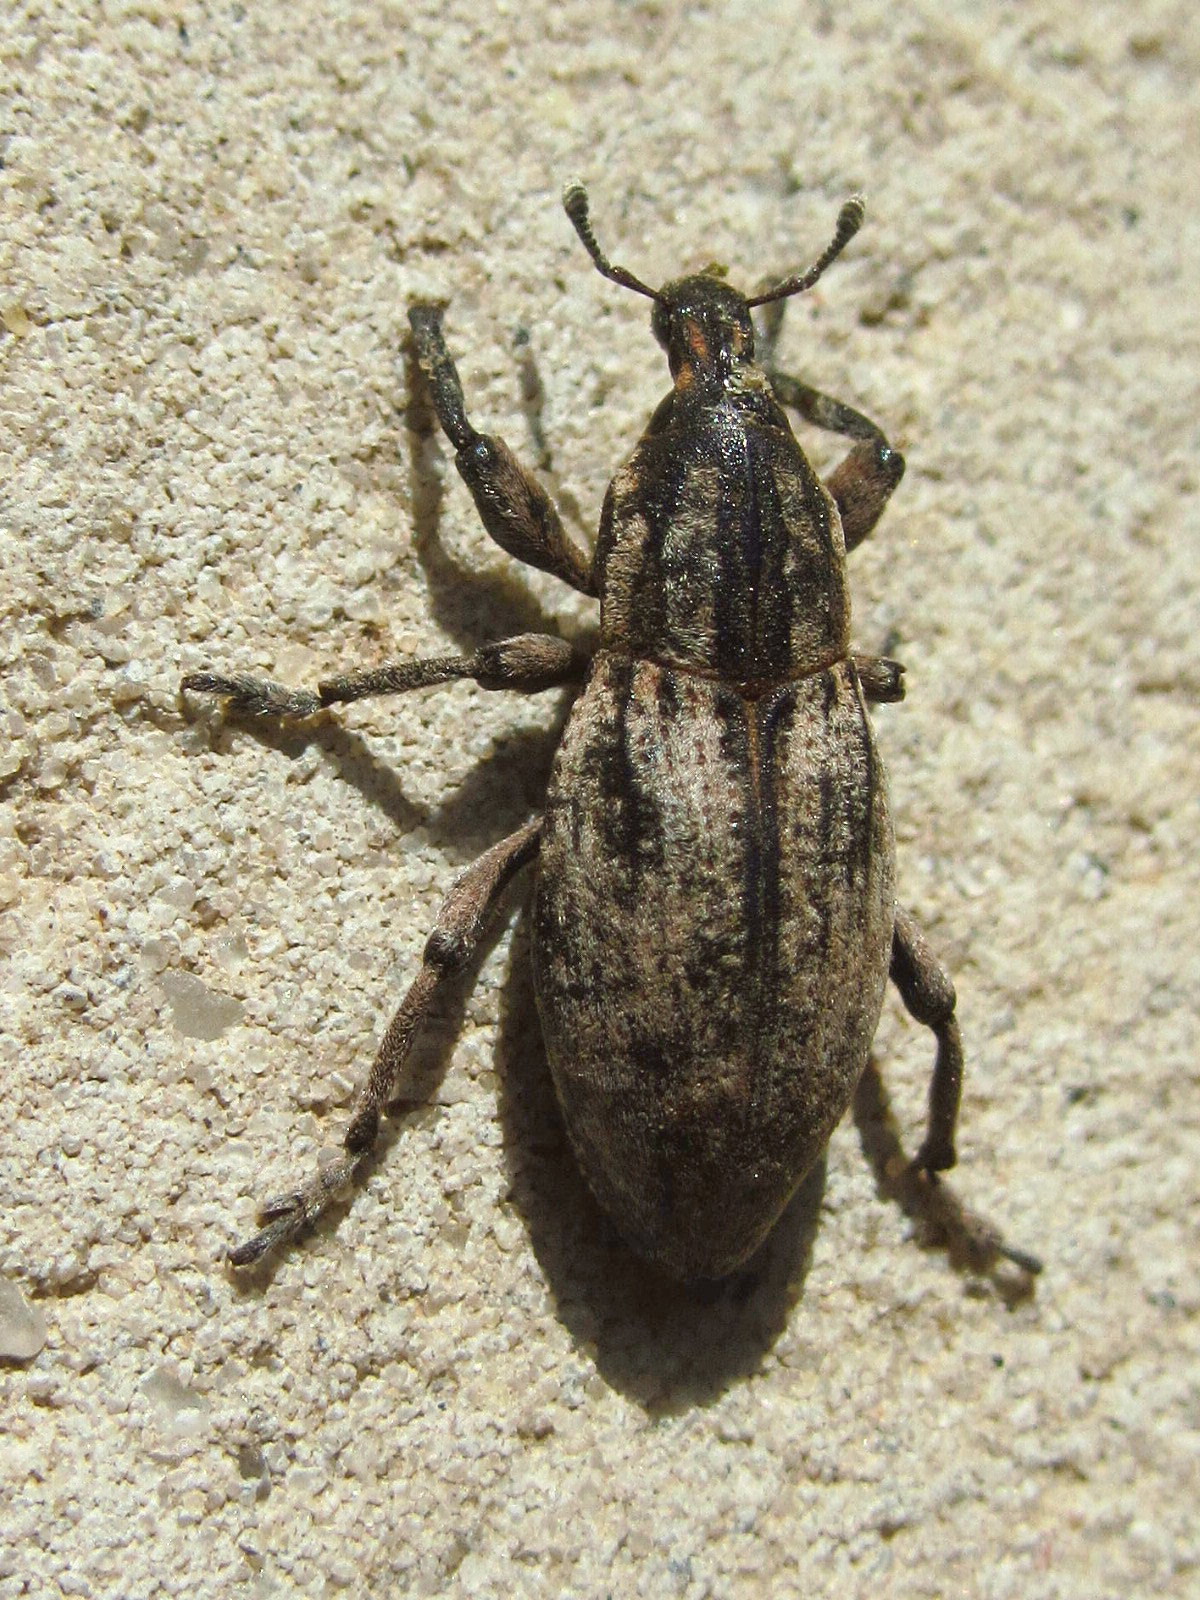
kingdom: Animalia
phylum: Arthropoda
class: Insecta
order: Coleoptera
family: Curculionidae
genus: Pseudocleonus
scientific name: Pseudocleonus cinereus
